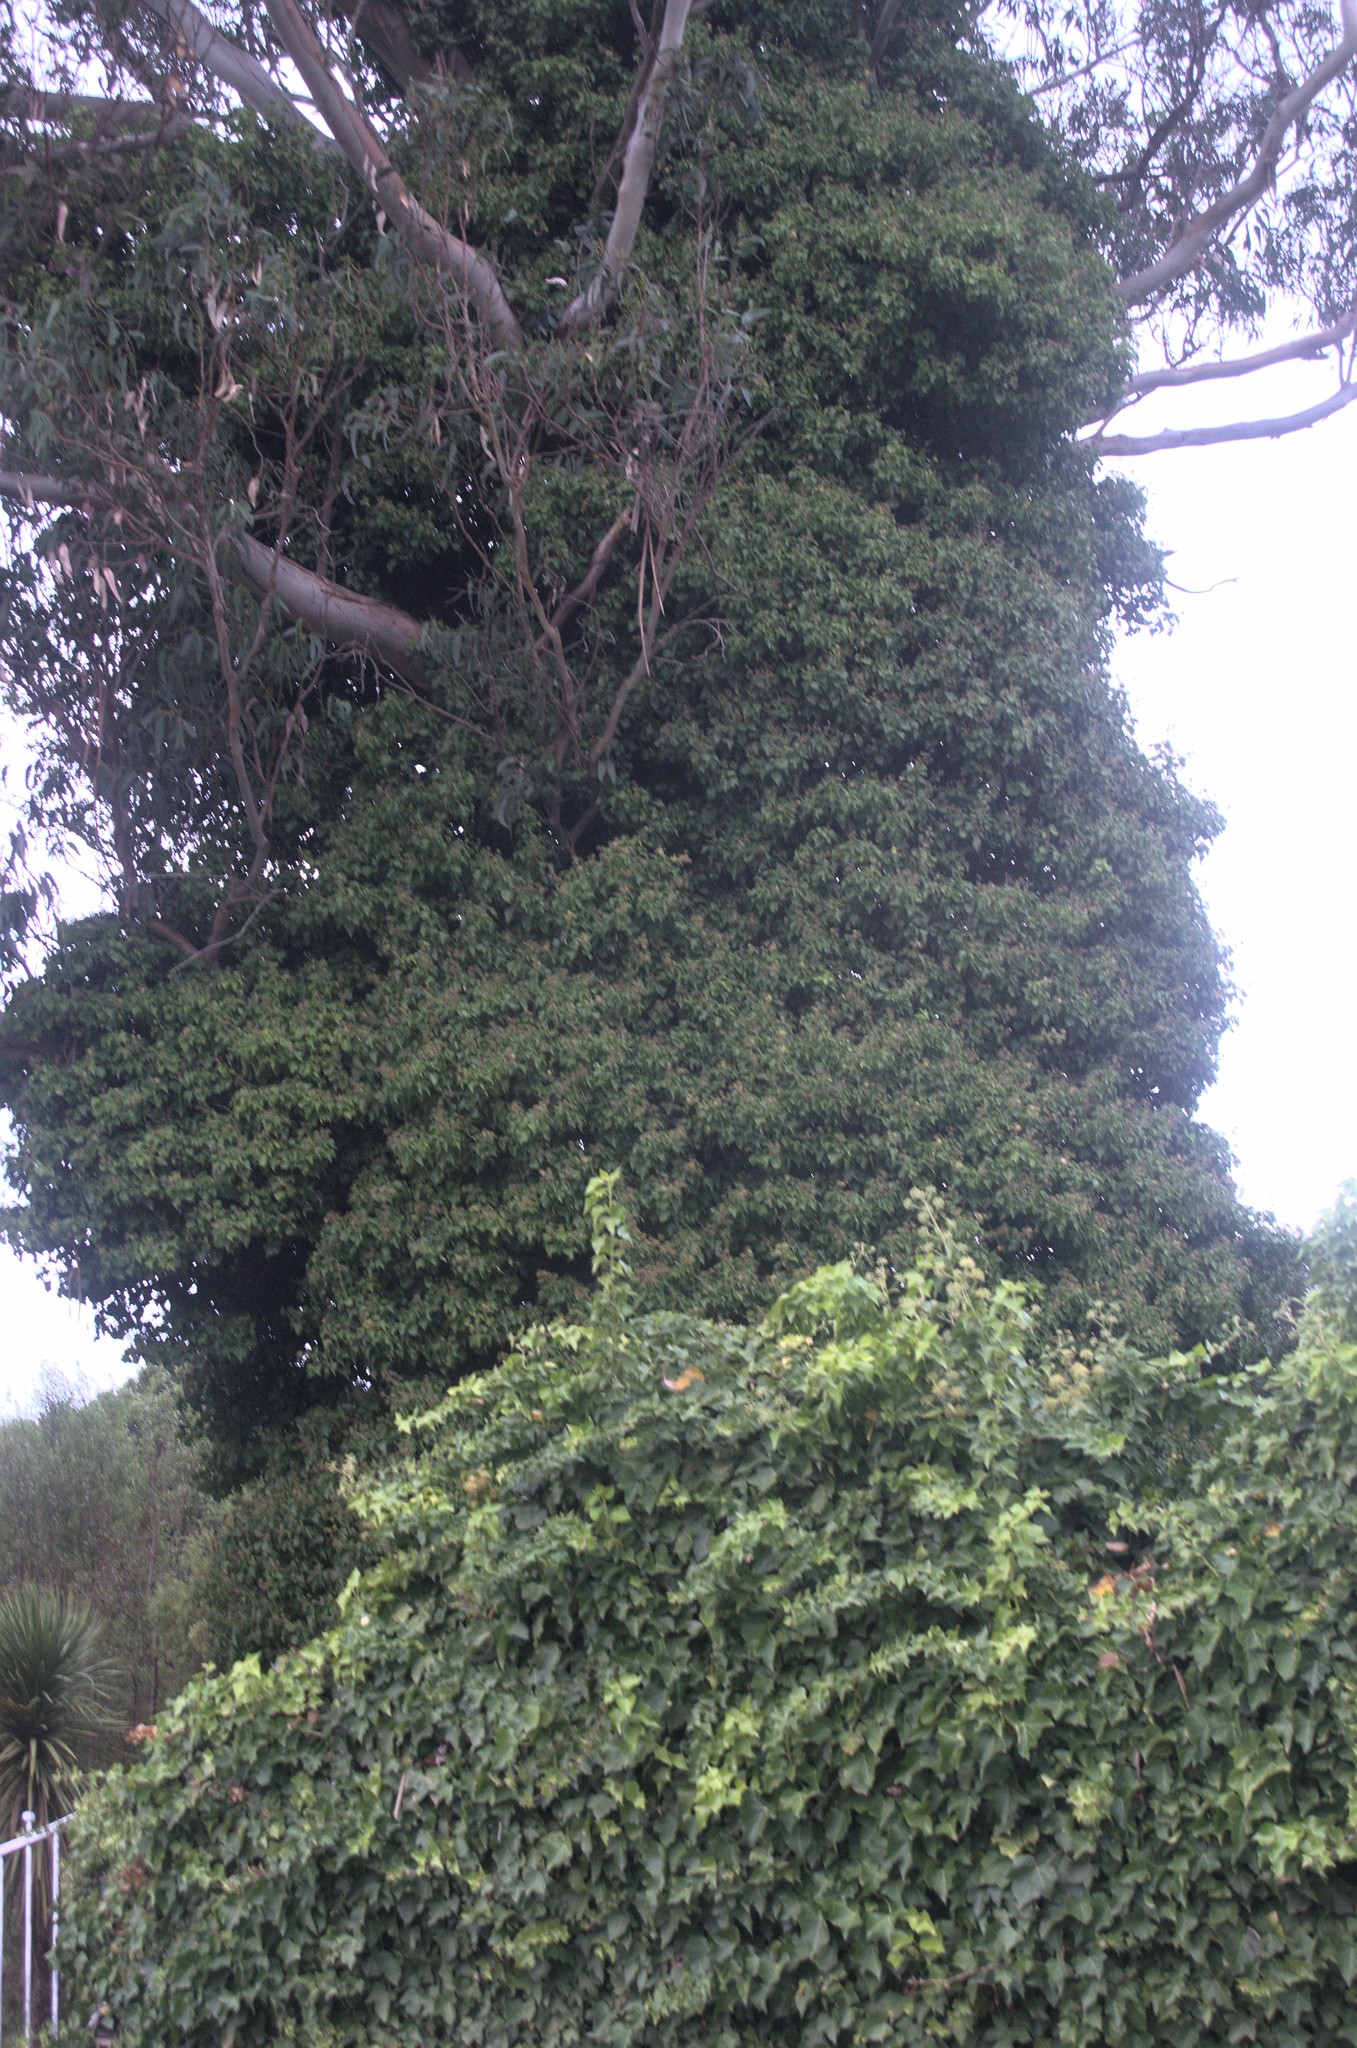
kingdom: Plantae
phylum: Tracheophyta
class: Magnoliopsida
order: Apiales
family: Araliaceae
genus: Hedera
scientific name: Hedera helix
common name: Ivy
